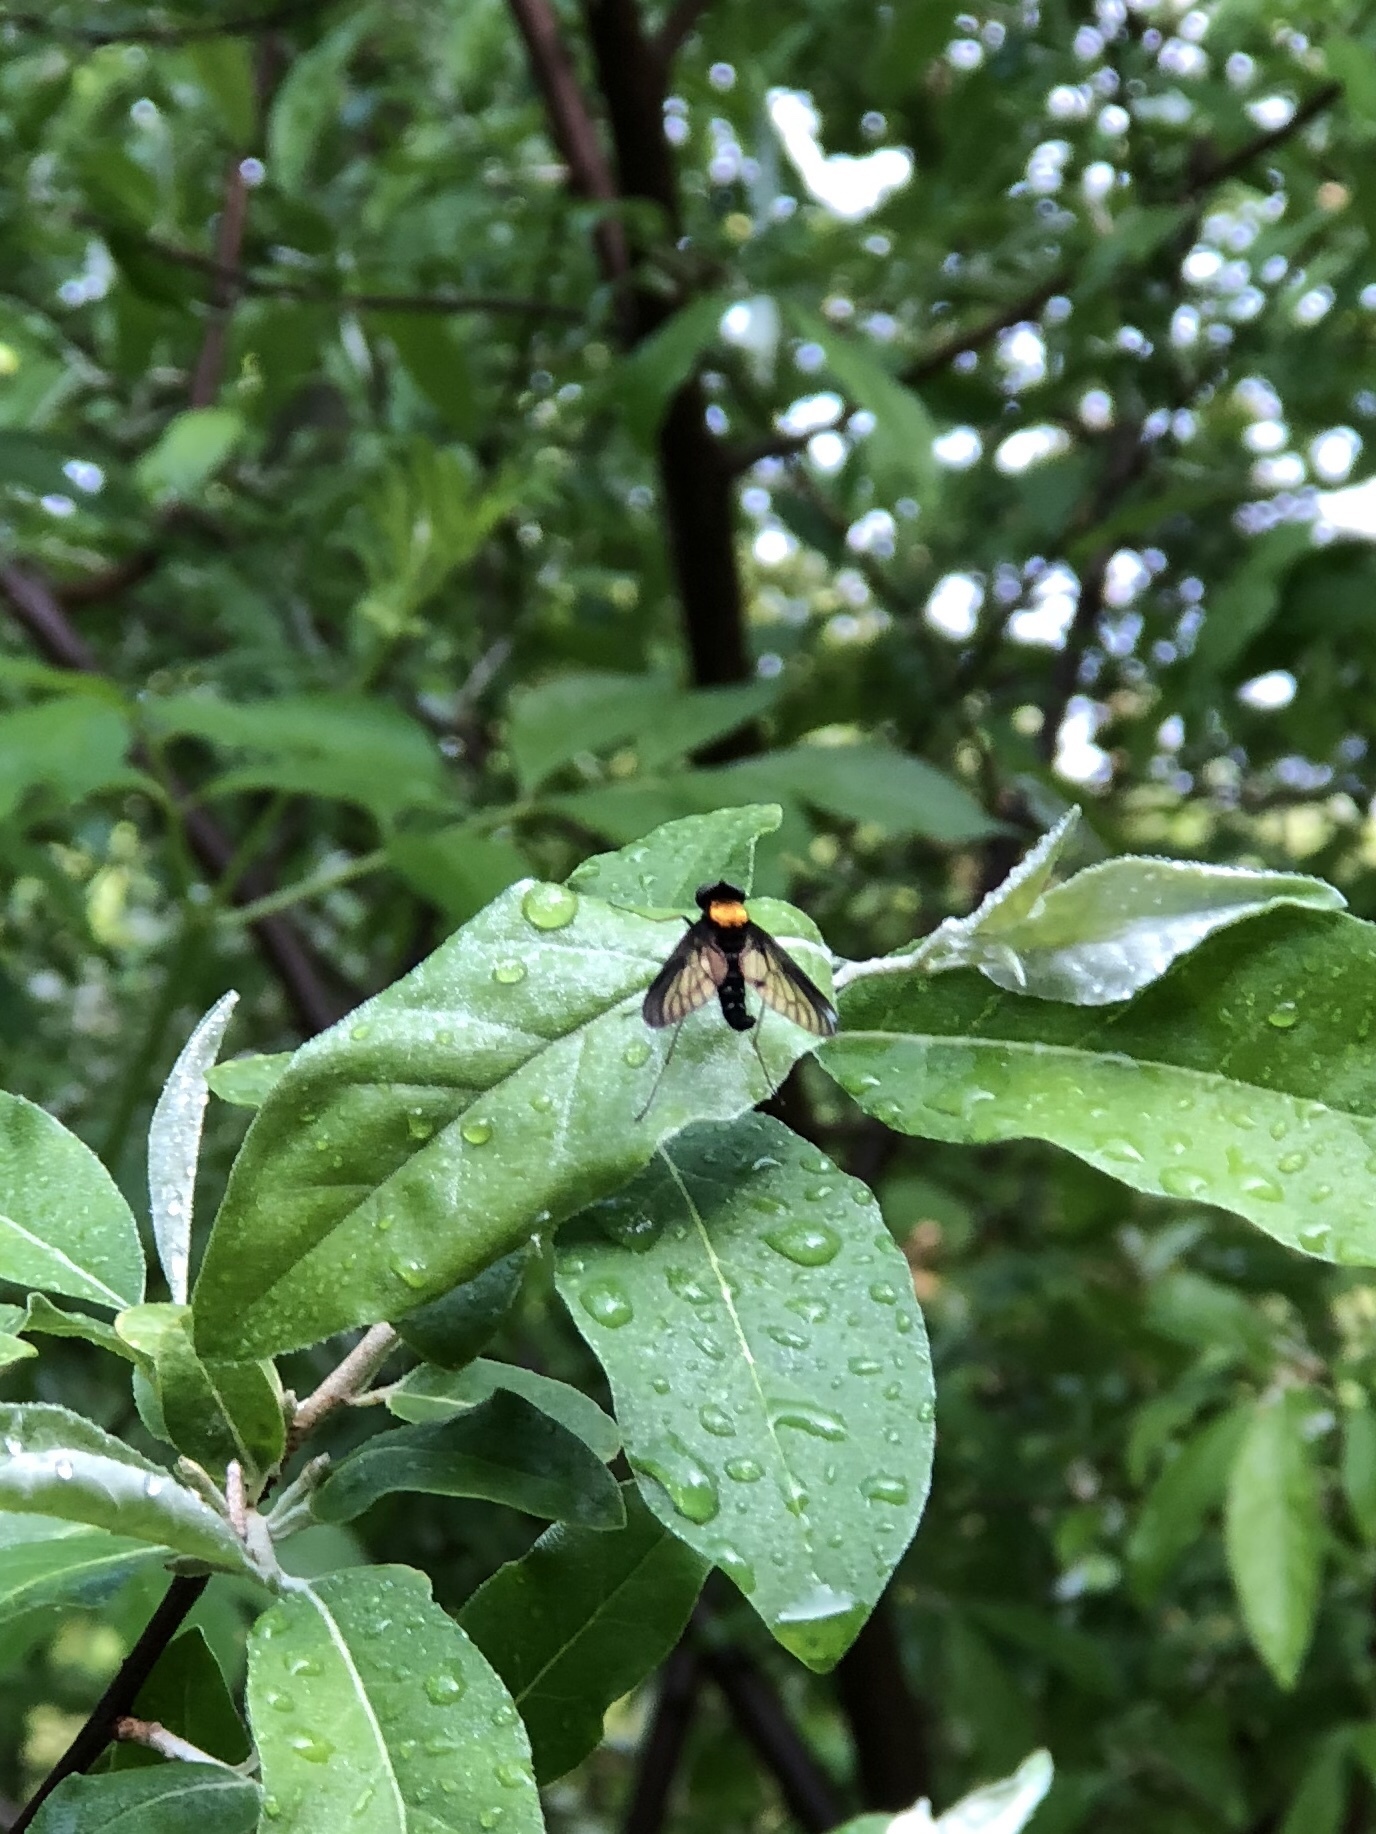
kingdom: Animalia
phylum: Arthropoda
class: Insecta
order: Diptera
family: Rhagionidae
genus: Chrysopilus
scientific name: Chrysopilus thoracicus
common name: Golden-backed snipe fly
